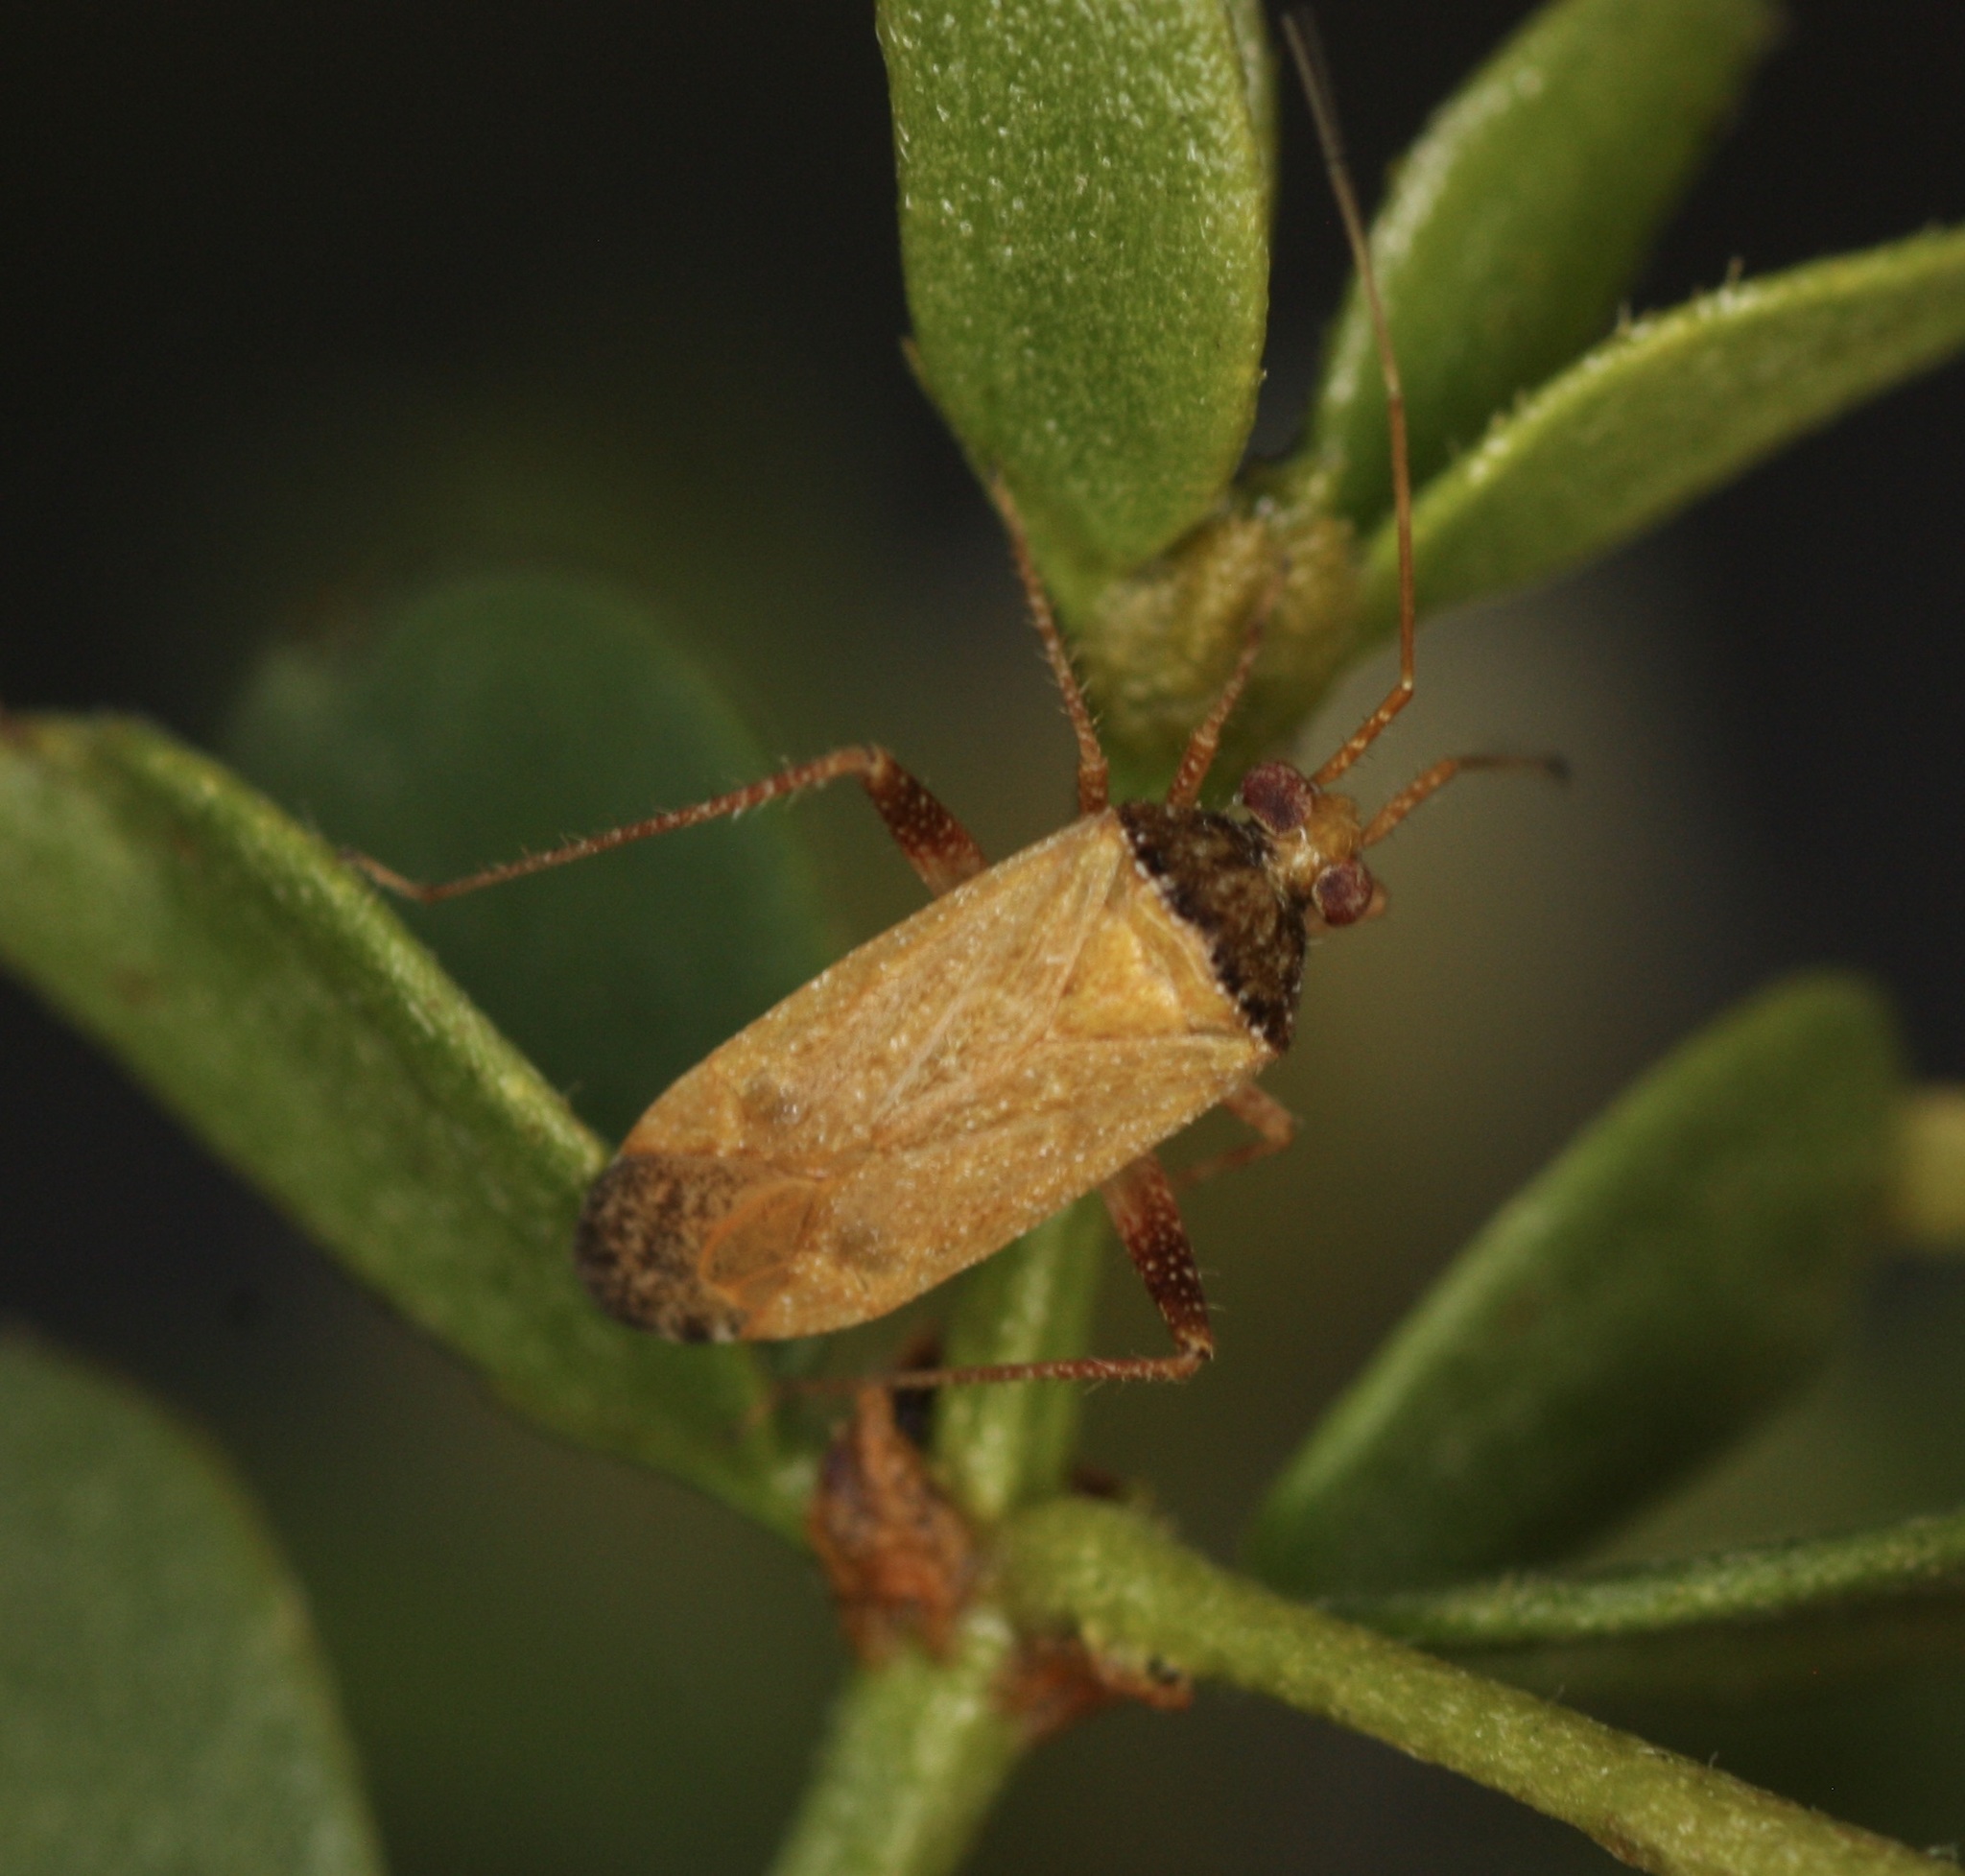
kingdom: Animalia
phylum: Arthropoda
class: Insecta
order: Hemiptera
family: Miridae
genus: Phytocoris
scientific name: Phytocoris ramosus
